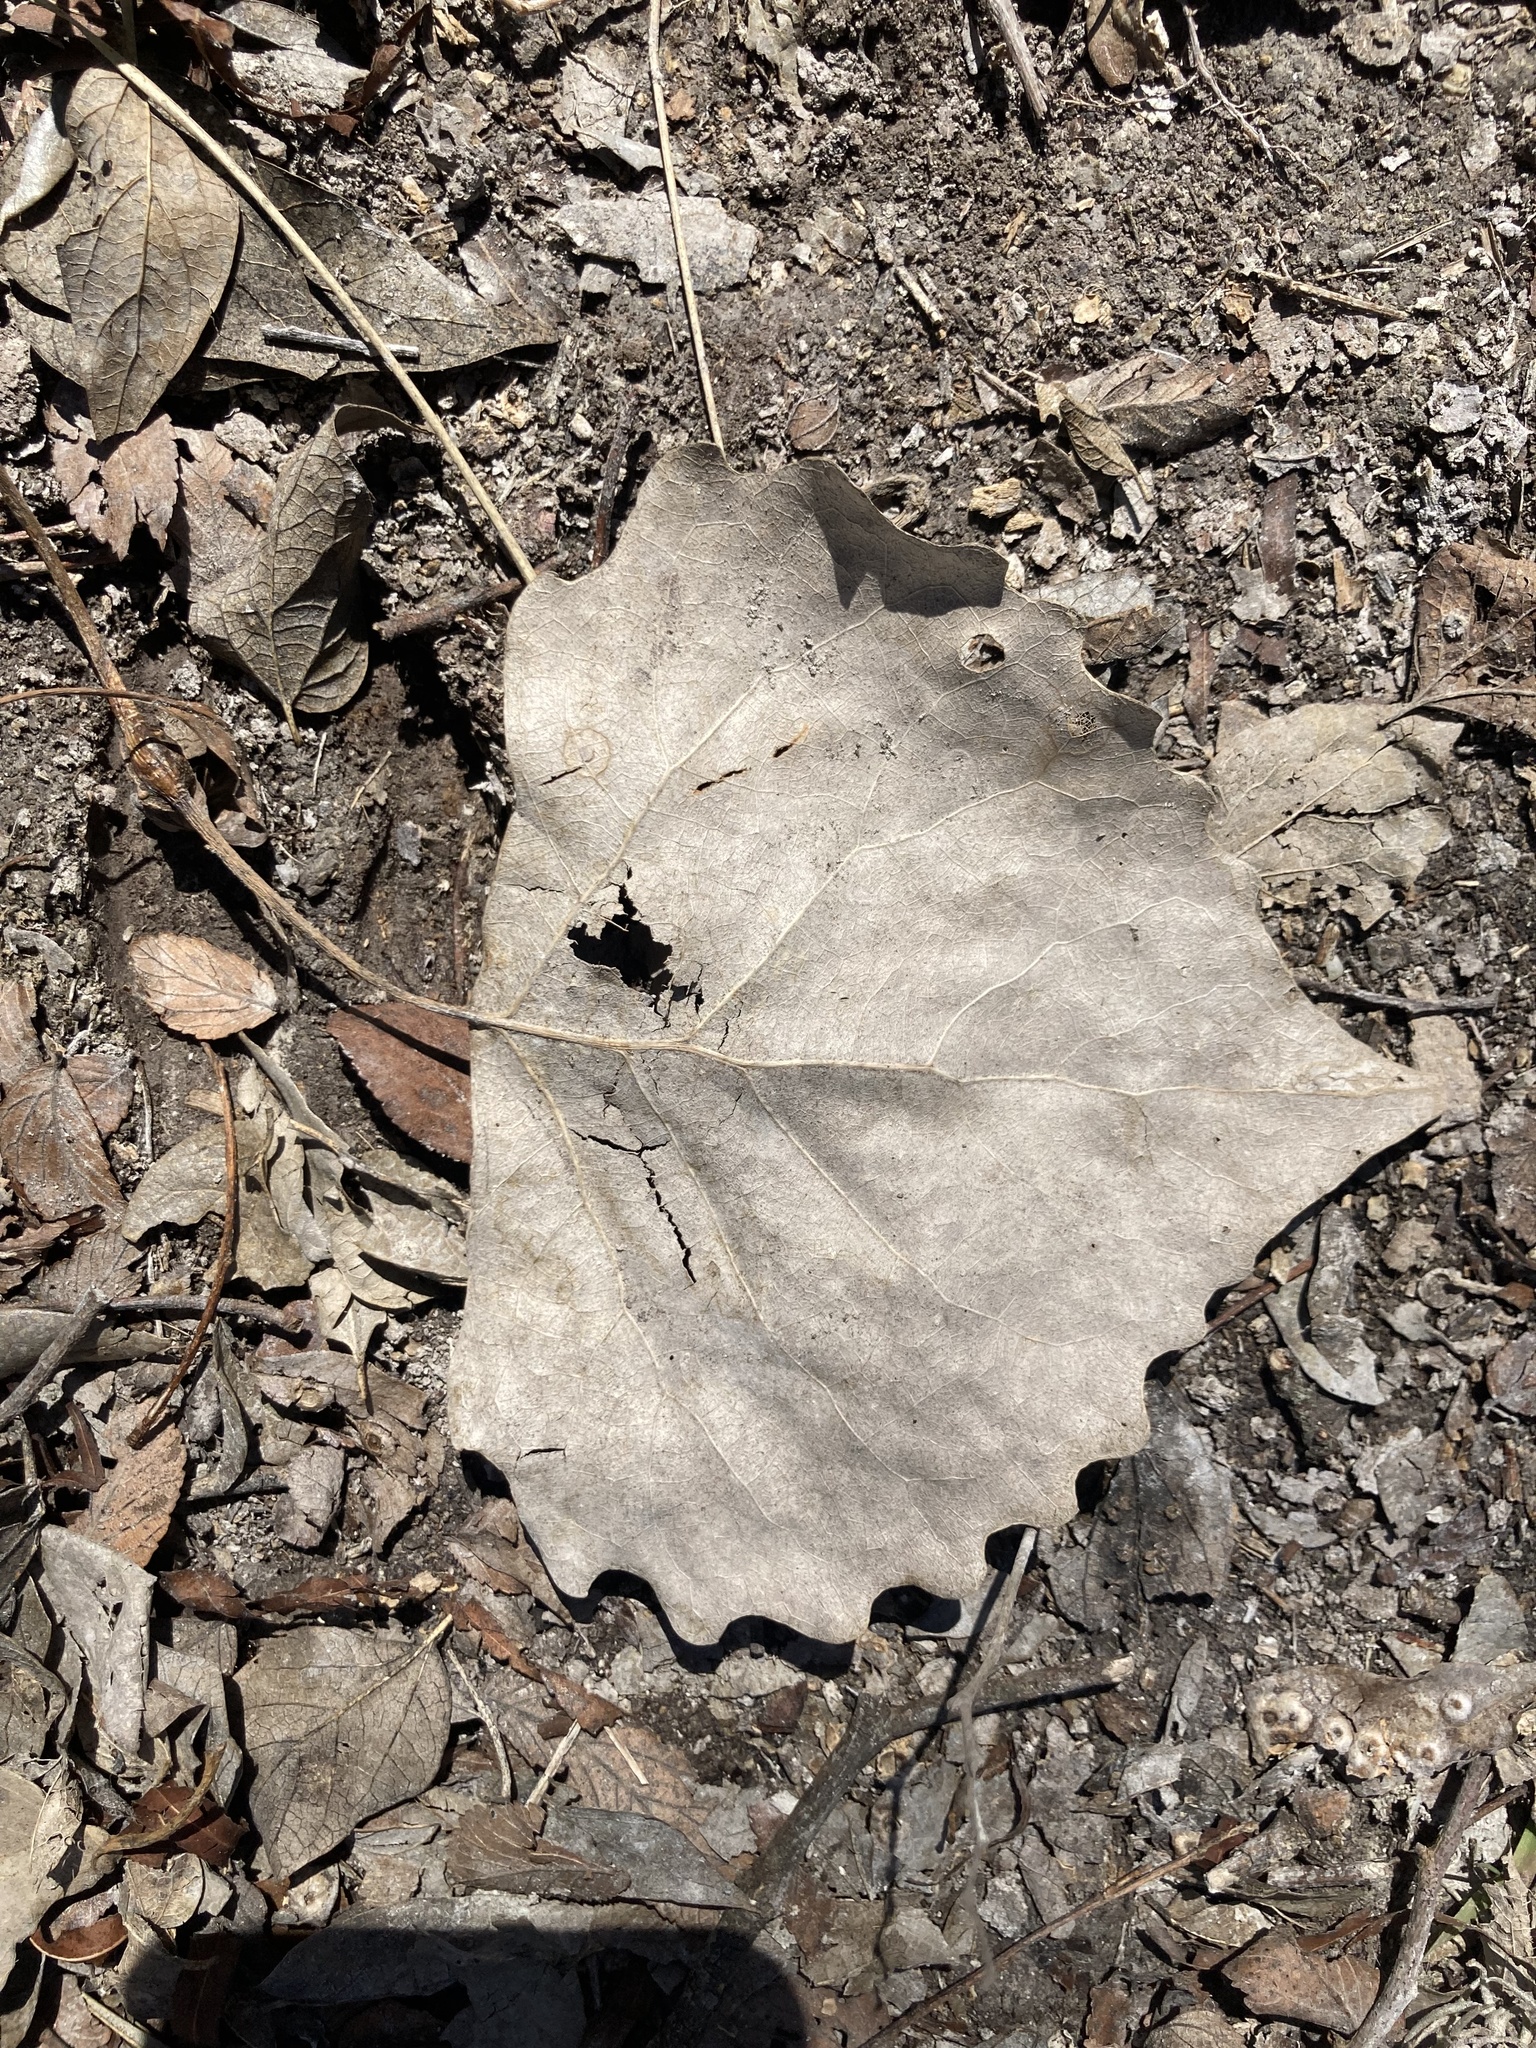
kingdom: Plantae
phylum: Tracheophyta
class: Magnoliopsida
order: Malpighiales
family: Salicaceae
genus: Populus
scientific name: Populus deltoides
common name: Eastern cottonwood
